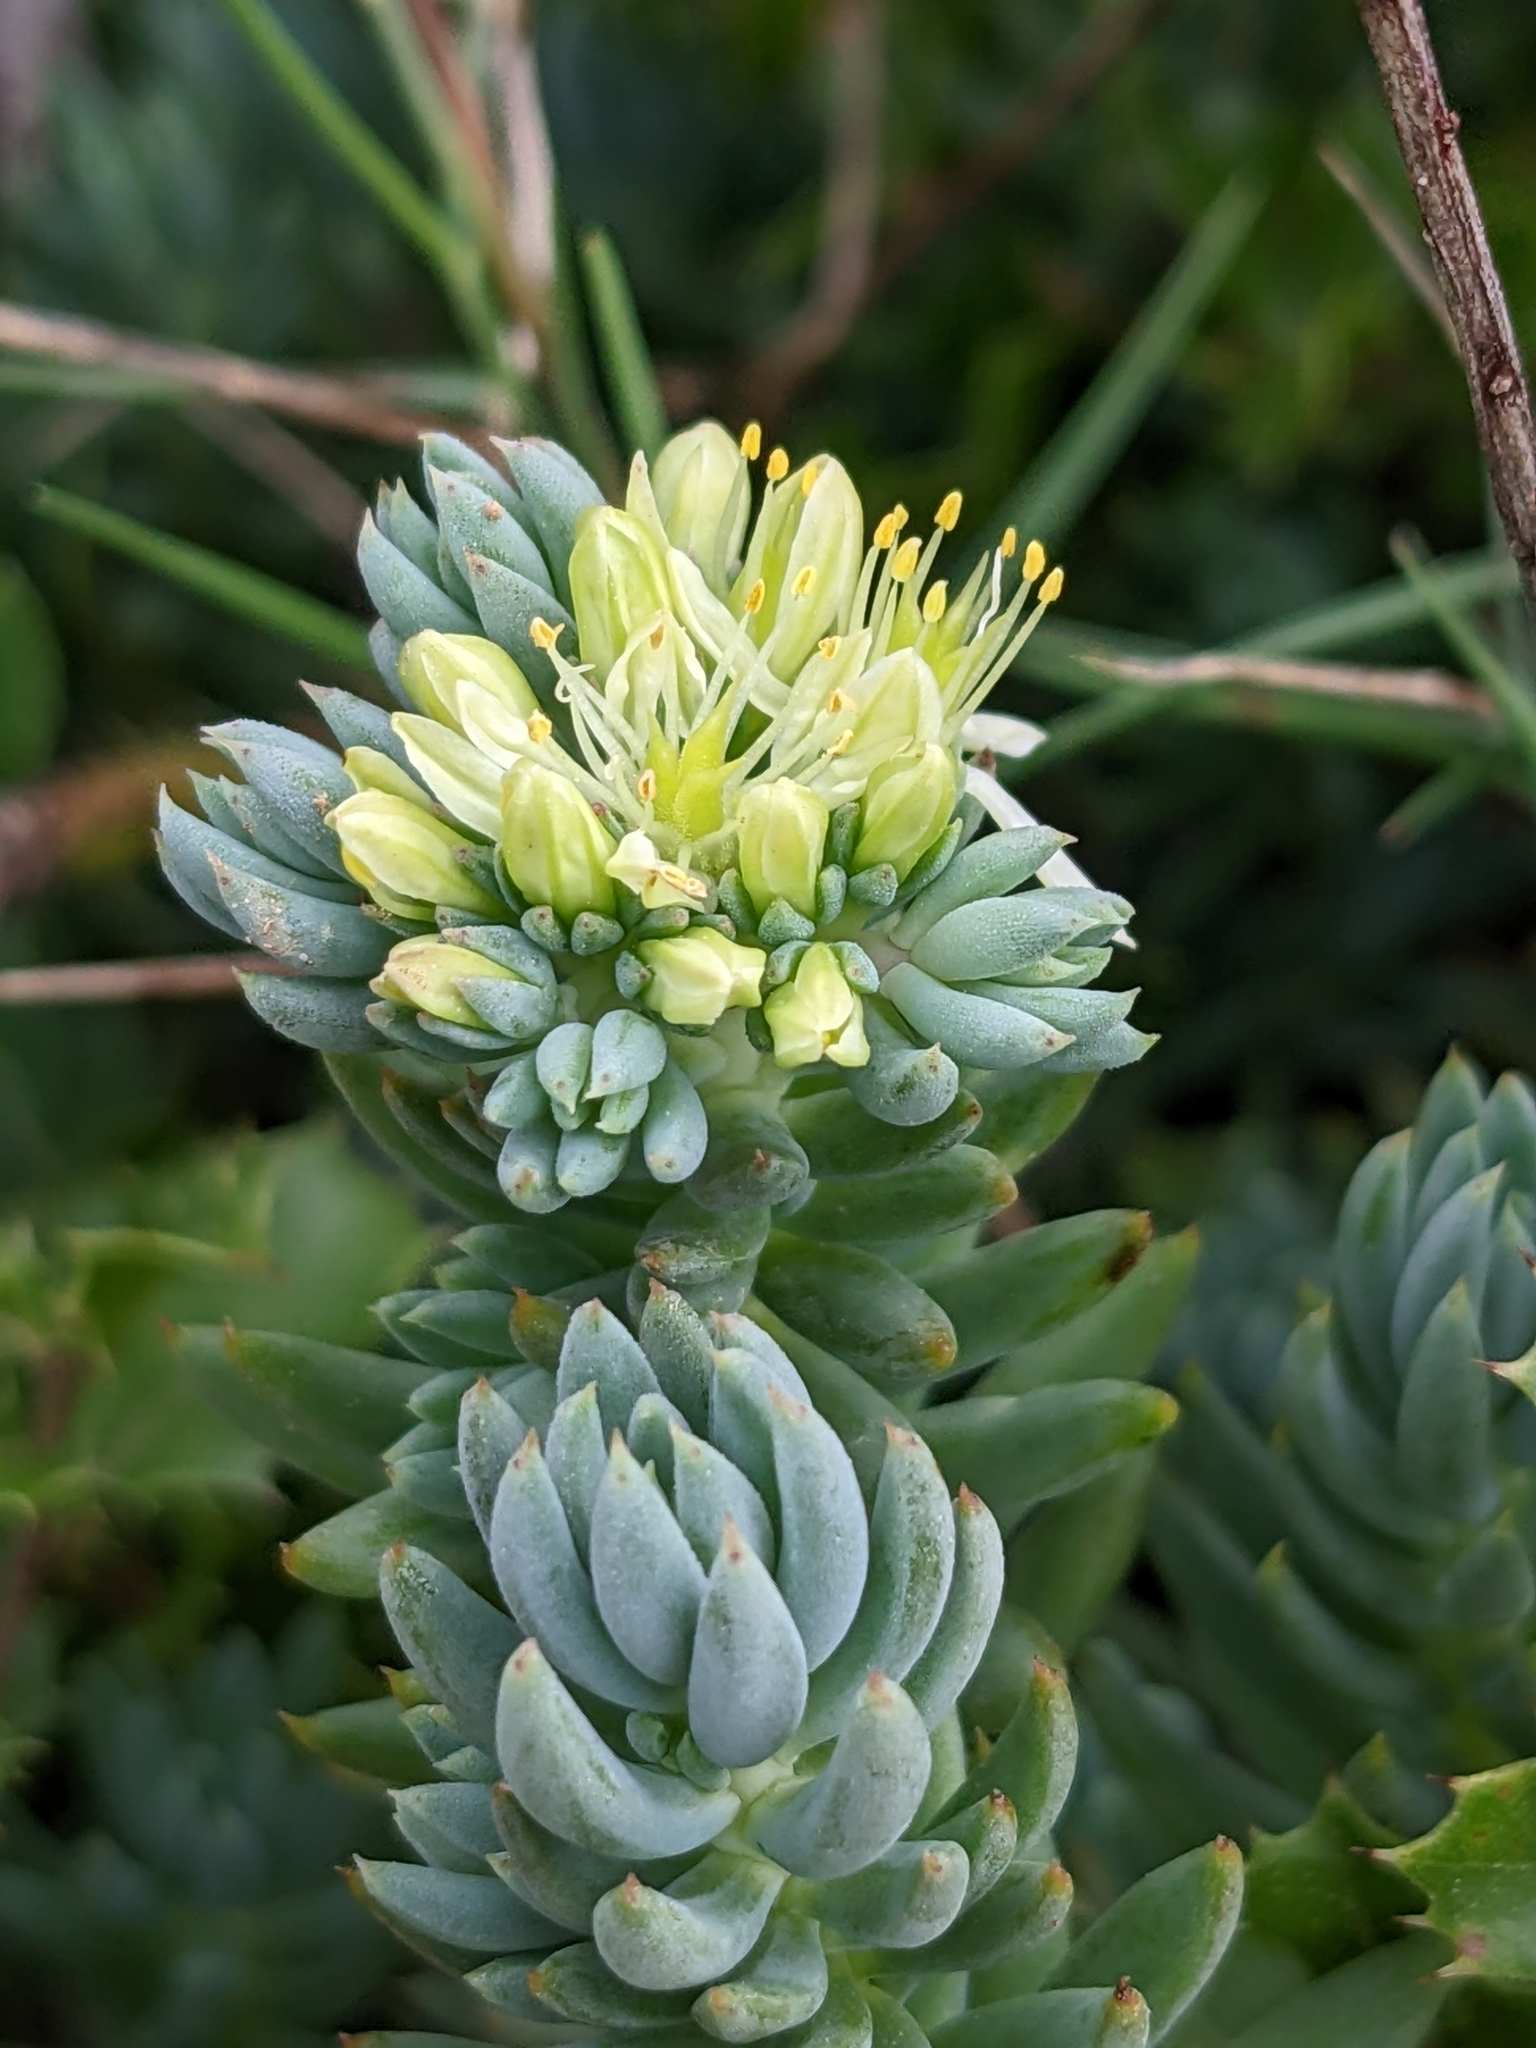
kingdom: Plantae
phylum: Tracheophyta
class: Magnoliopsida
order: Saxifragales
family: Crassulaceae
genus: Petrosedum
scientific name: Petrosedum sediforme
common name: Pale stonecrop
